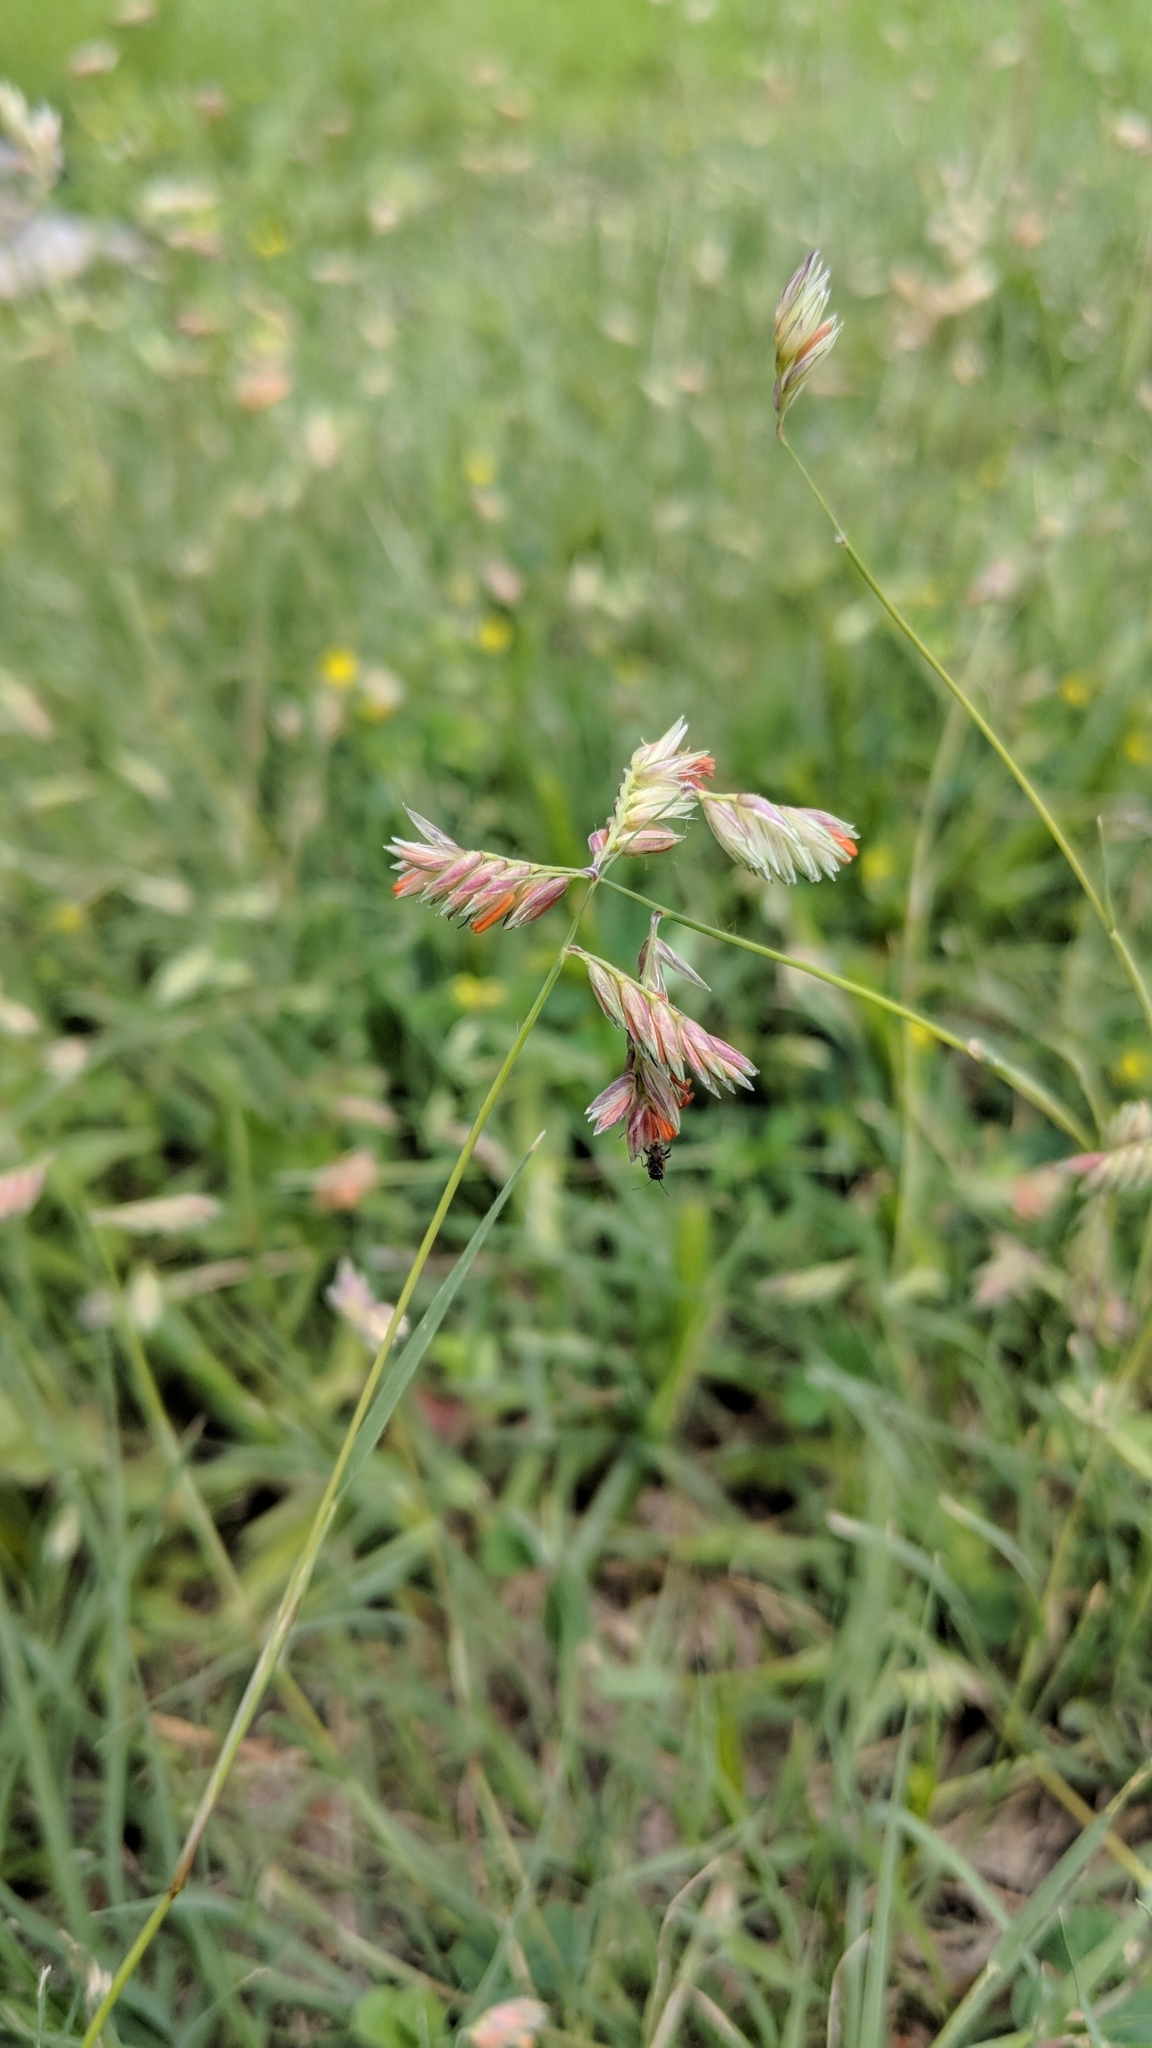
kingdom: Plantae
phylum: Tracheophyta
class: Liliopsida
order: Poales
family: Poaceae
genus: Bouteloua
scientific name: Bouteloua dactyloides
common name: Buffalo grass
